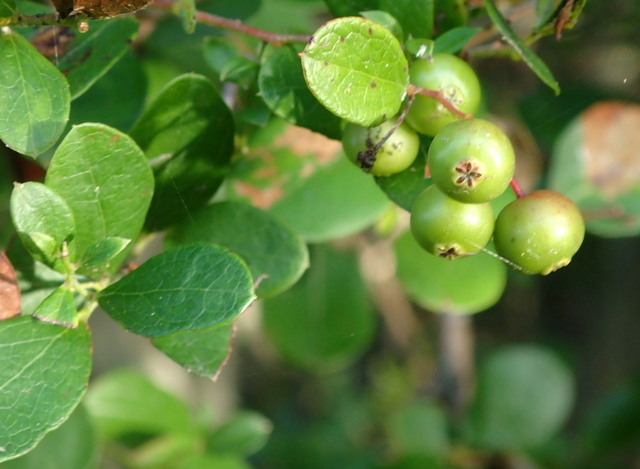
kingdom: Plantae
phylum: Tracheophyta
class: Magnoliopsida
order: Ericales
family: Ericaceae
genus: Vaccinium
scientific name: Vaccinium arboreum
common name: Farkleberry
